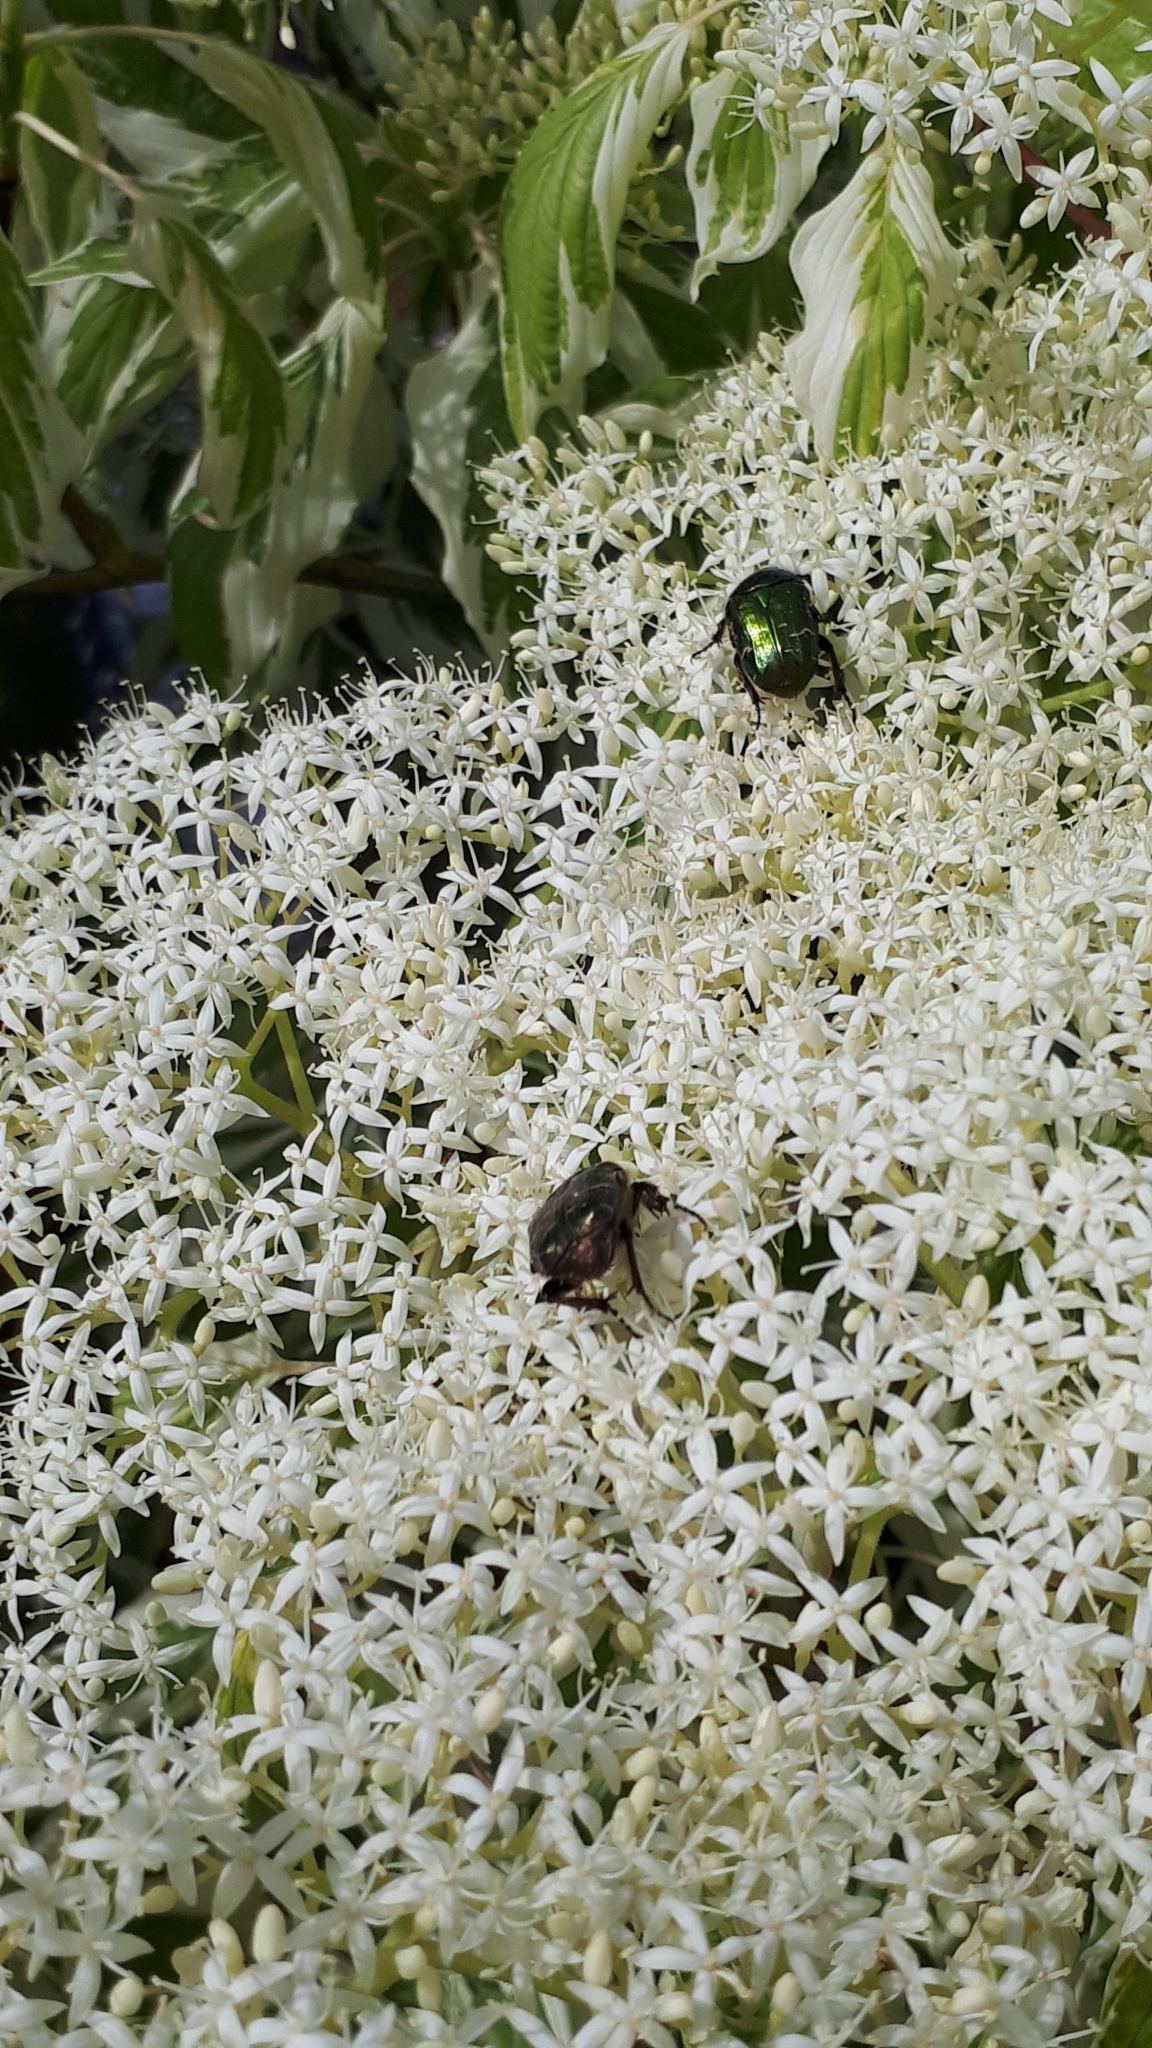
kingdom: Animalia
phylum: Arthropoda
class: Insecta
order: Coleoptera
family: Scarabaeidae
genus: Cetonia
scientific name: Cetonia aurata
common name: Rose chafer
